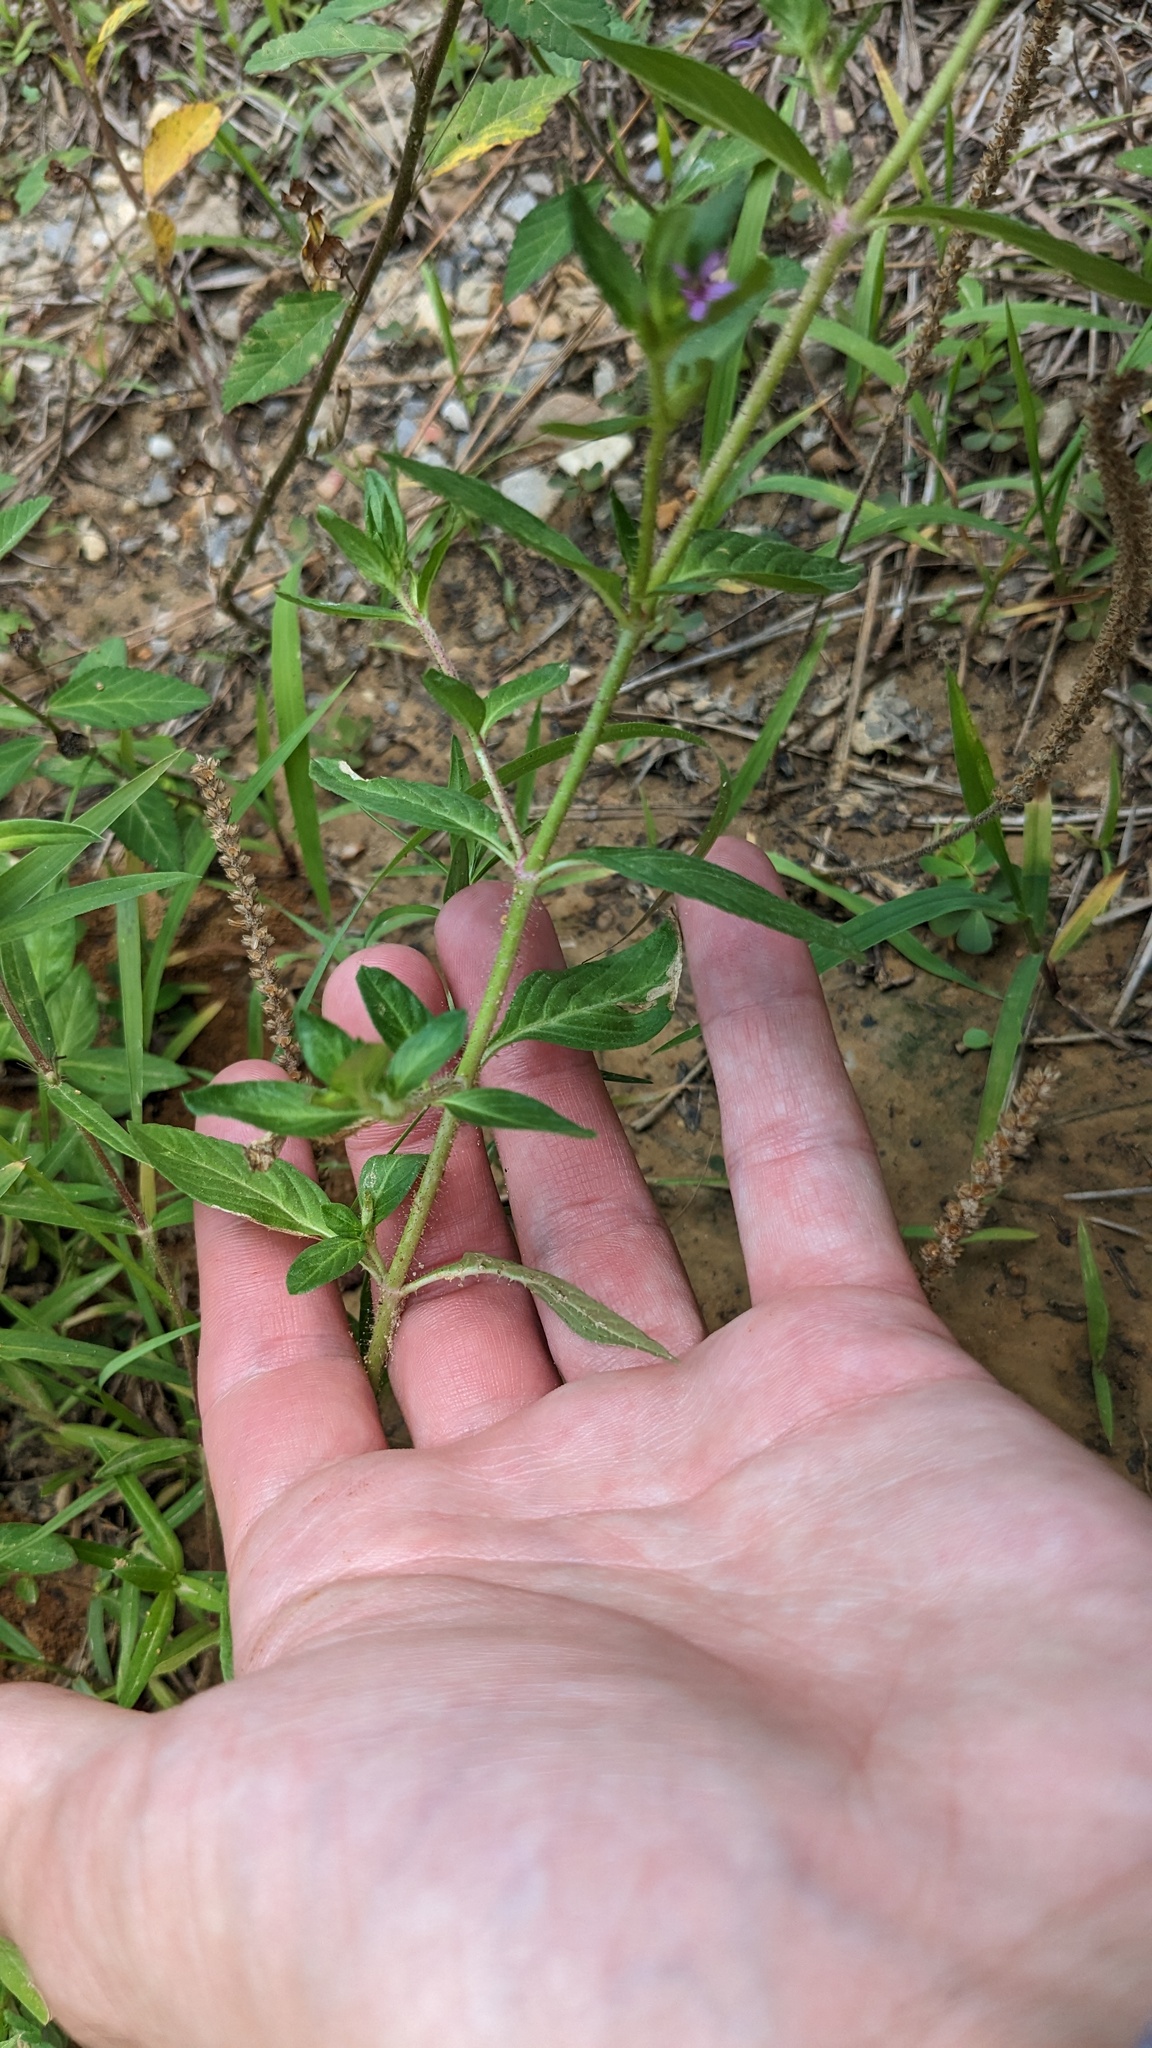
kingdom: Plantae
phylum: Tracheophyta
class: Magnoliopsida
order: Myrtales
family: Lythraceae
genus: Cuphea
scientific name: Cuphea carthagenensis
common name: Colombian waxweed
